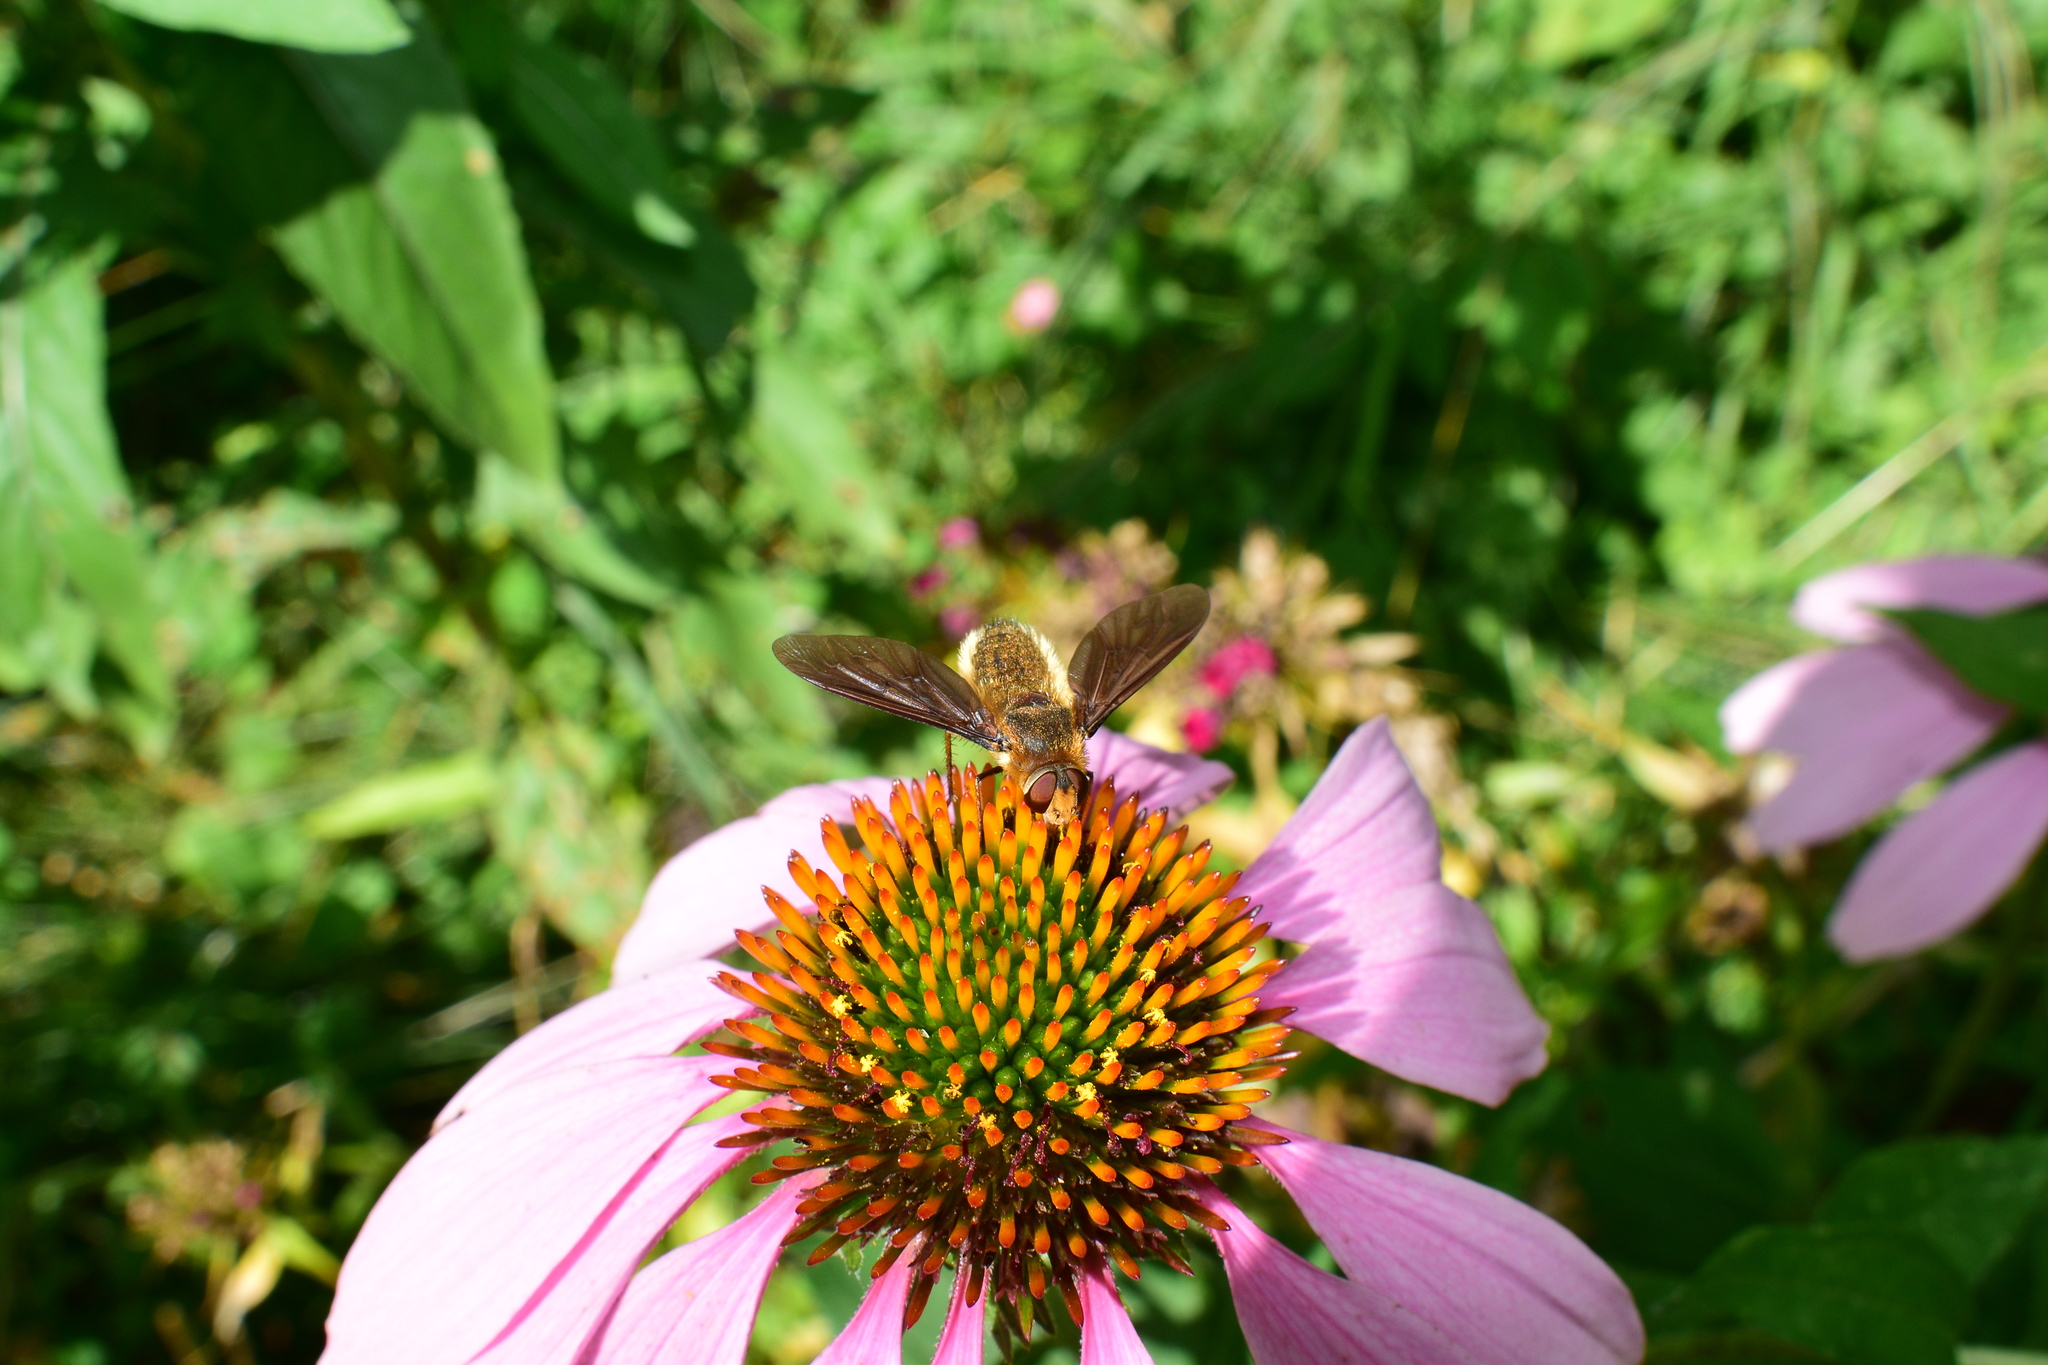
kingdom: Animalia
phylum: Arthropoda
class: Insecta
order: Diptera
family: Bombyliidae
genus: Poecilanthrax
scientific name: Poecilanthrax tegminipennis
